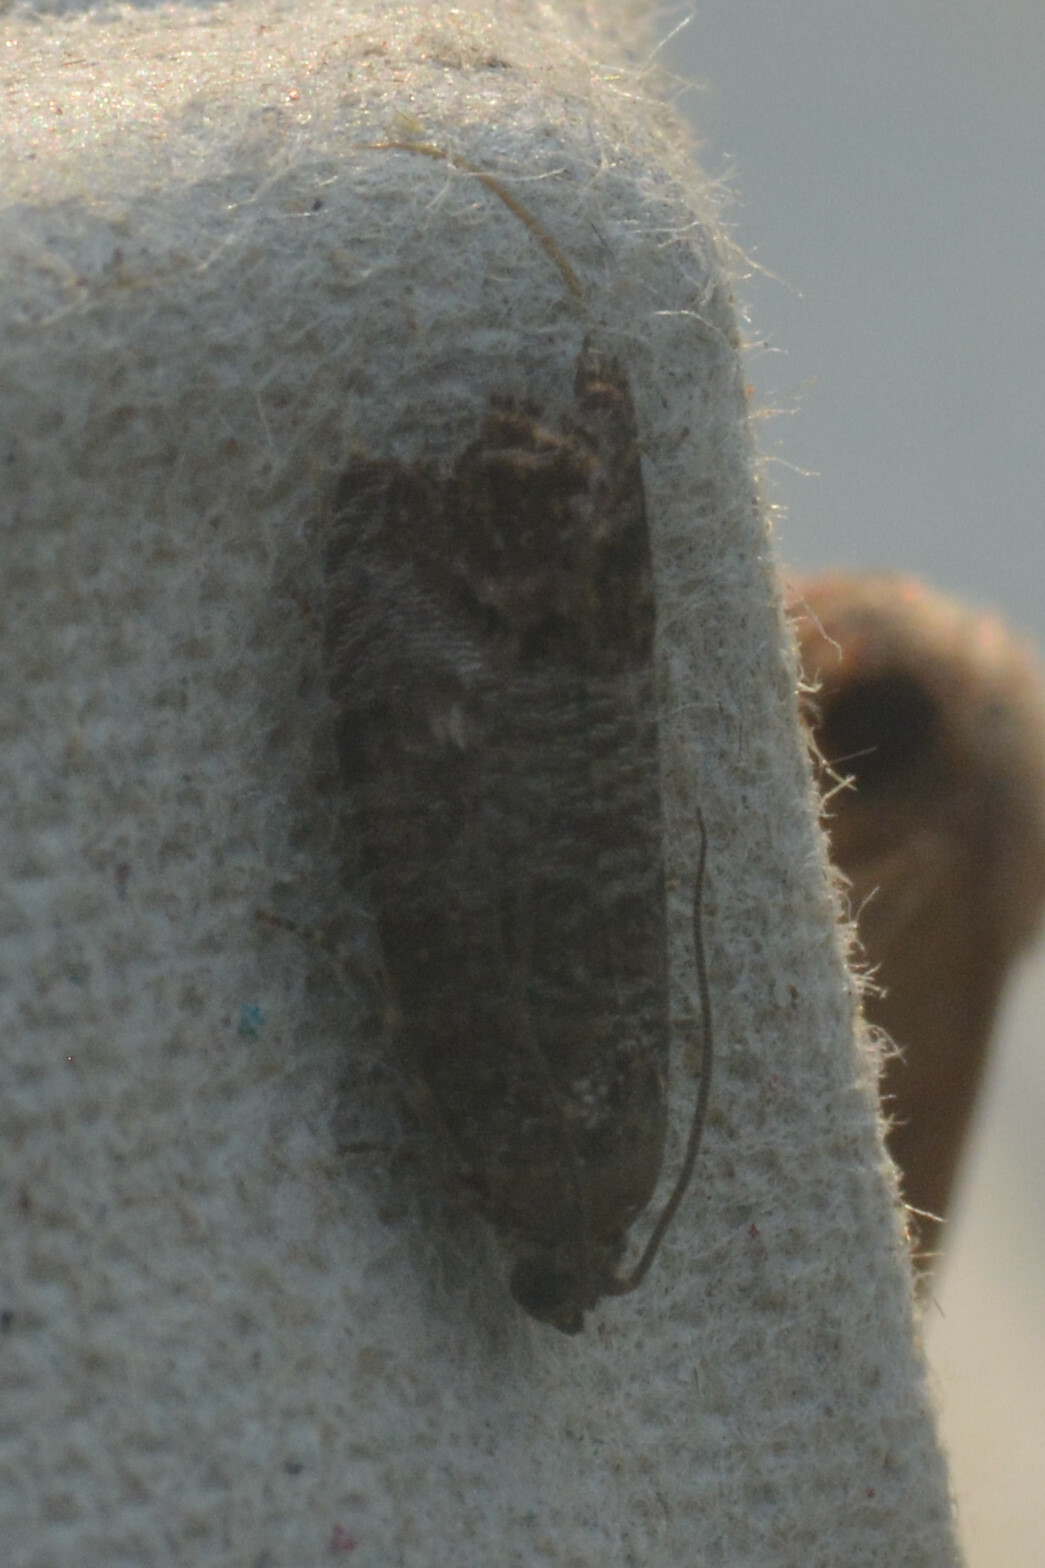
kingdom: Animalia
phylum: Arthropoda
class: Insecta
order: Lepidoptera
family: Tortricidae
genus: Cydia
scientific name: Cydia pomonella
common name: Codling moth
